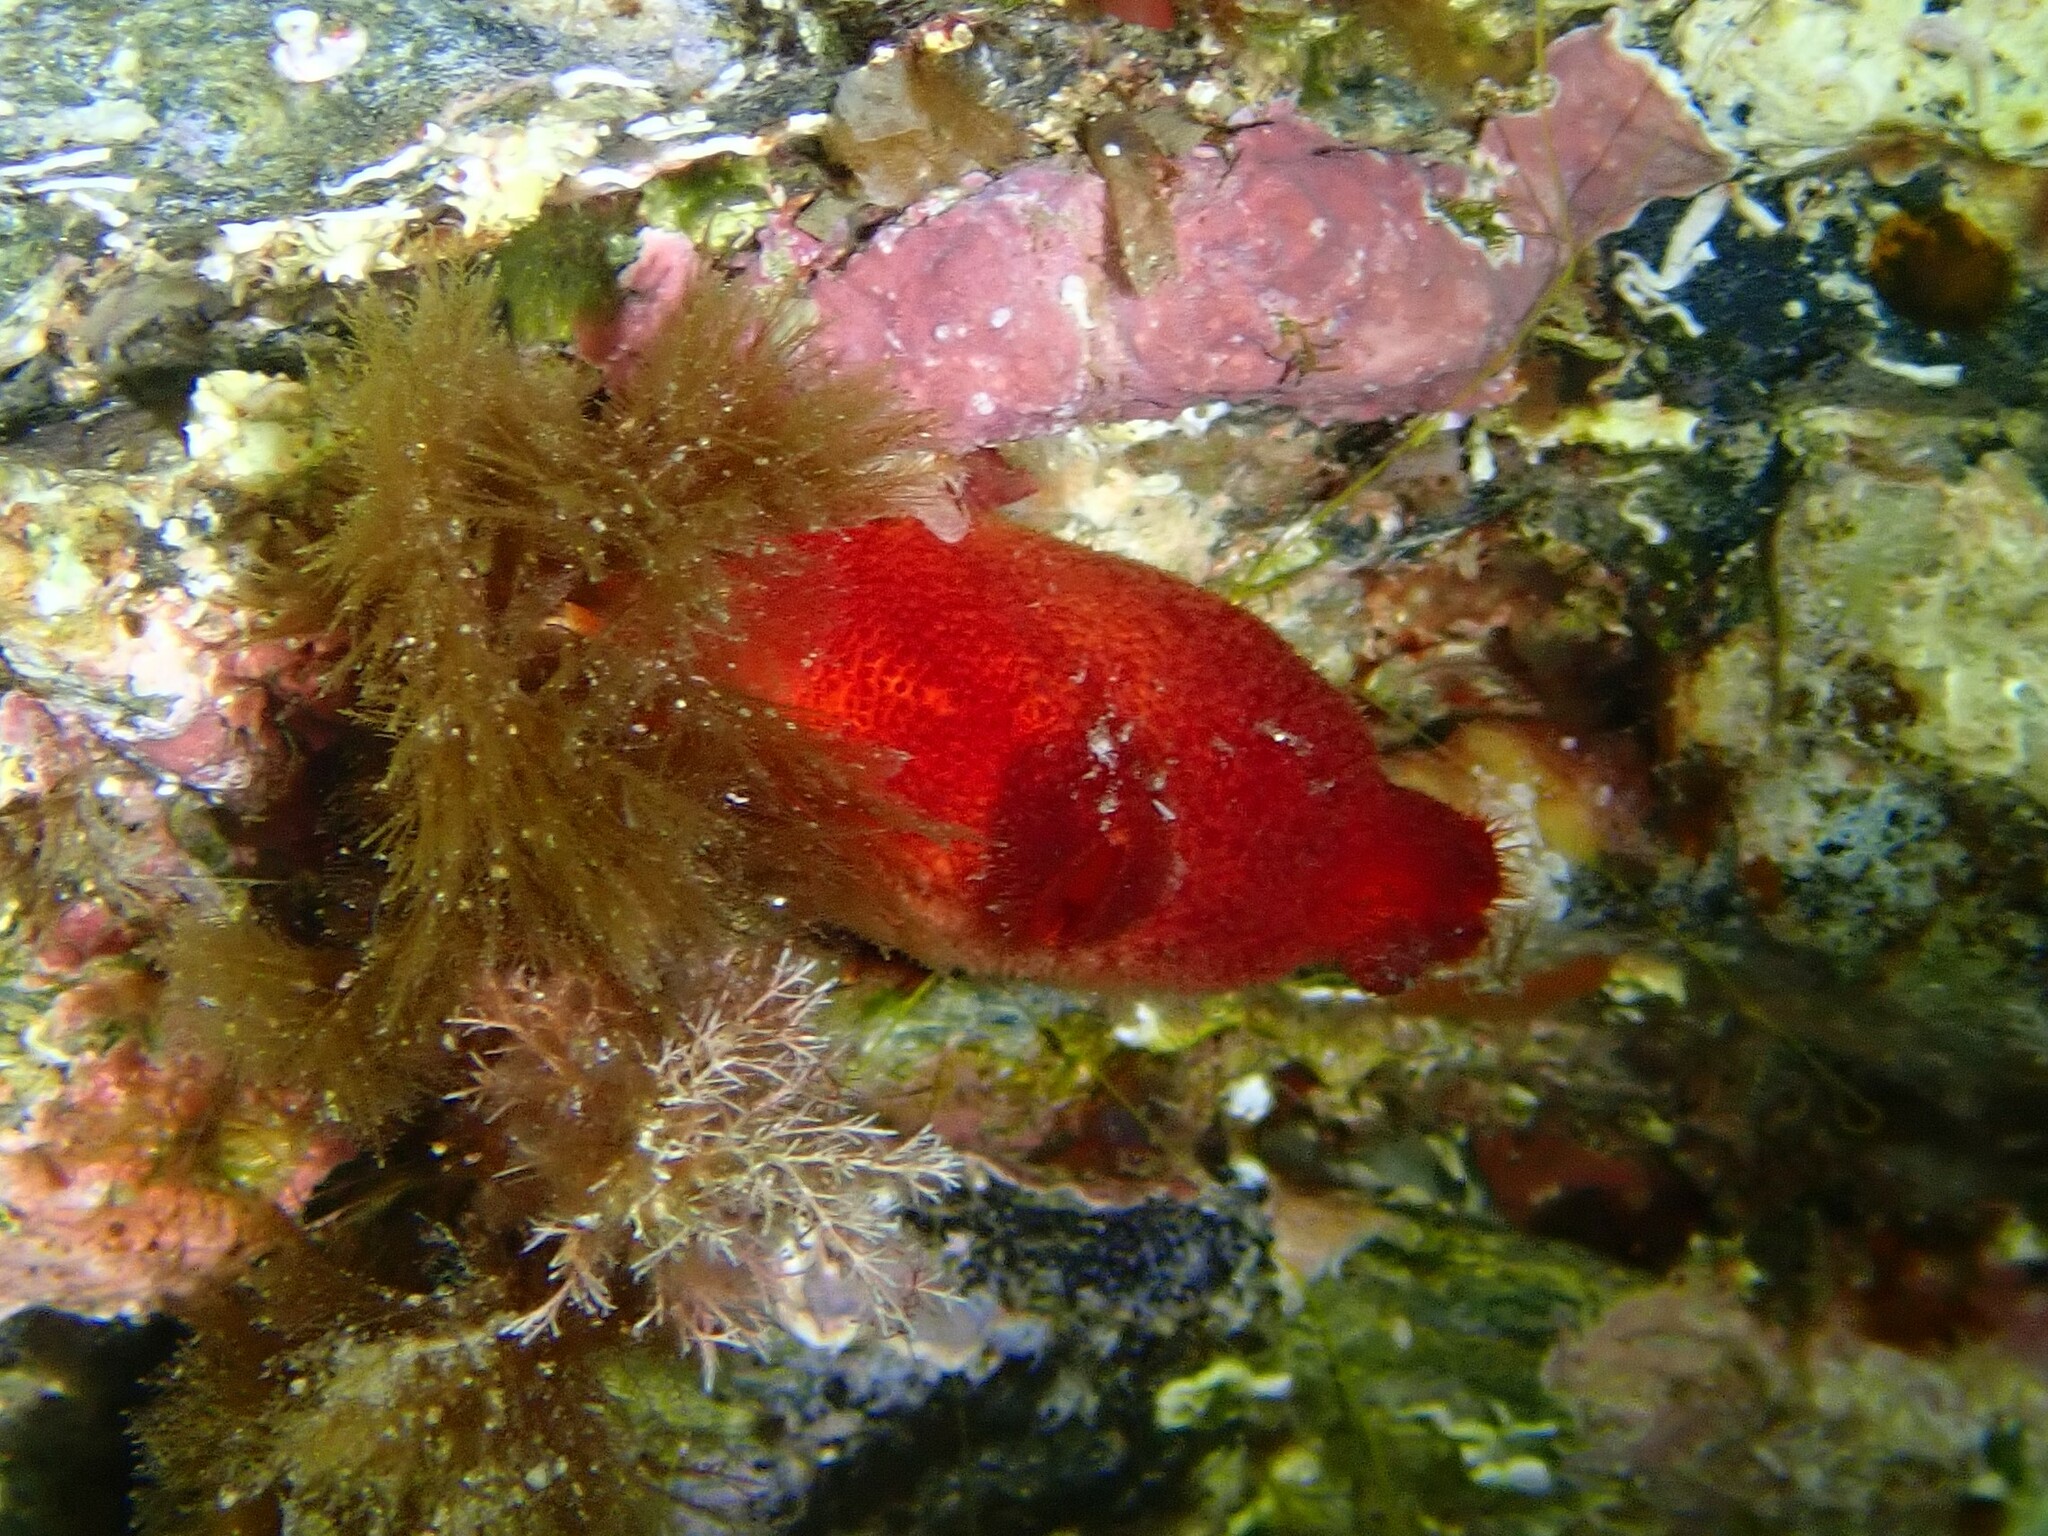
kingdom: Animalia
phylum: Chordata
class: Ascidiacea
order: Stolidobranchia
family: Pyuridae
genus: Halocynthia
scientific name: Halocynthia papillosa
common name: Red sea-squirt
